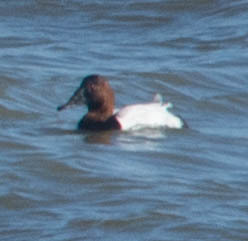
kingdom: Animalia
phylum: Chordata
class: Aves
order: Anseriformes
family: Anatidae
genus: Aythya
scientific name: Aythya valisineria
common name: Canvasback
